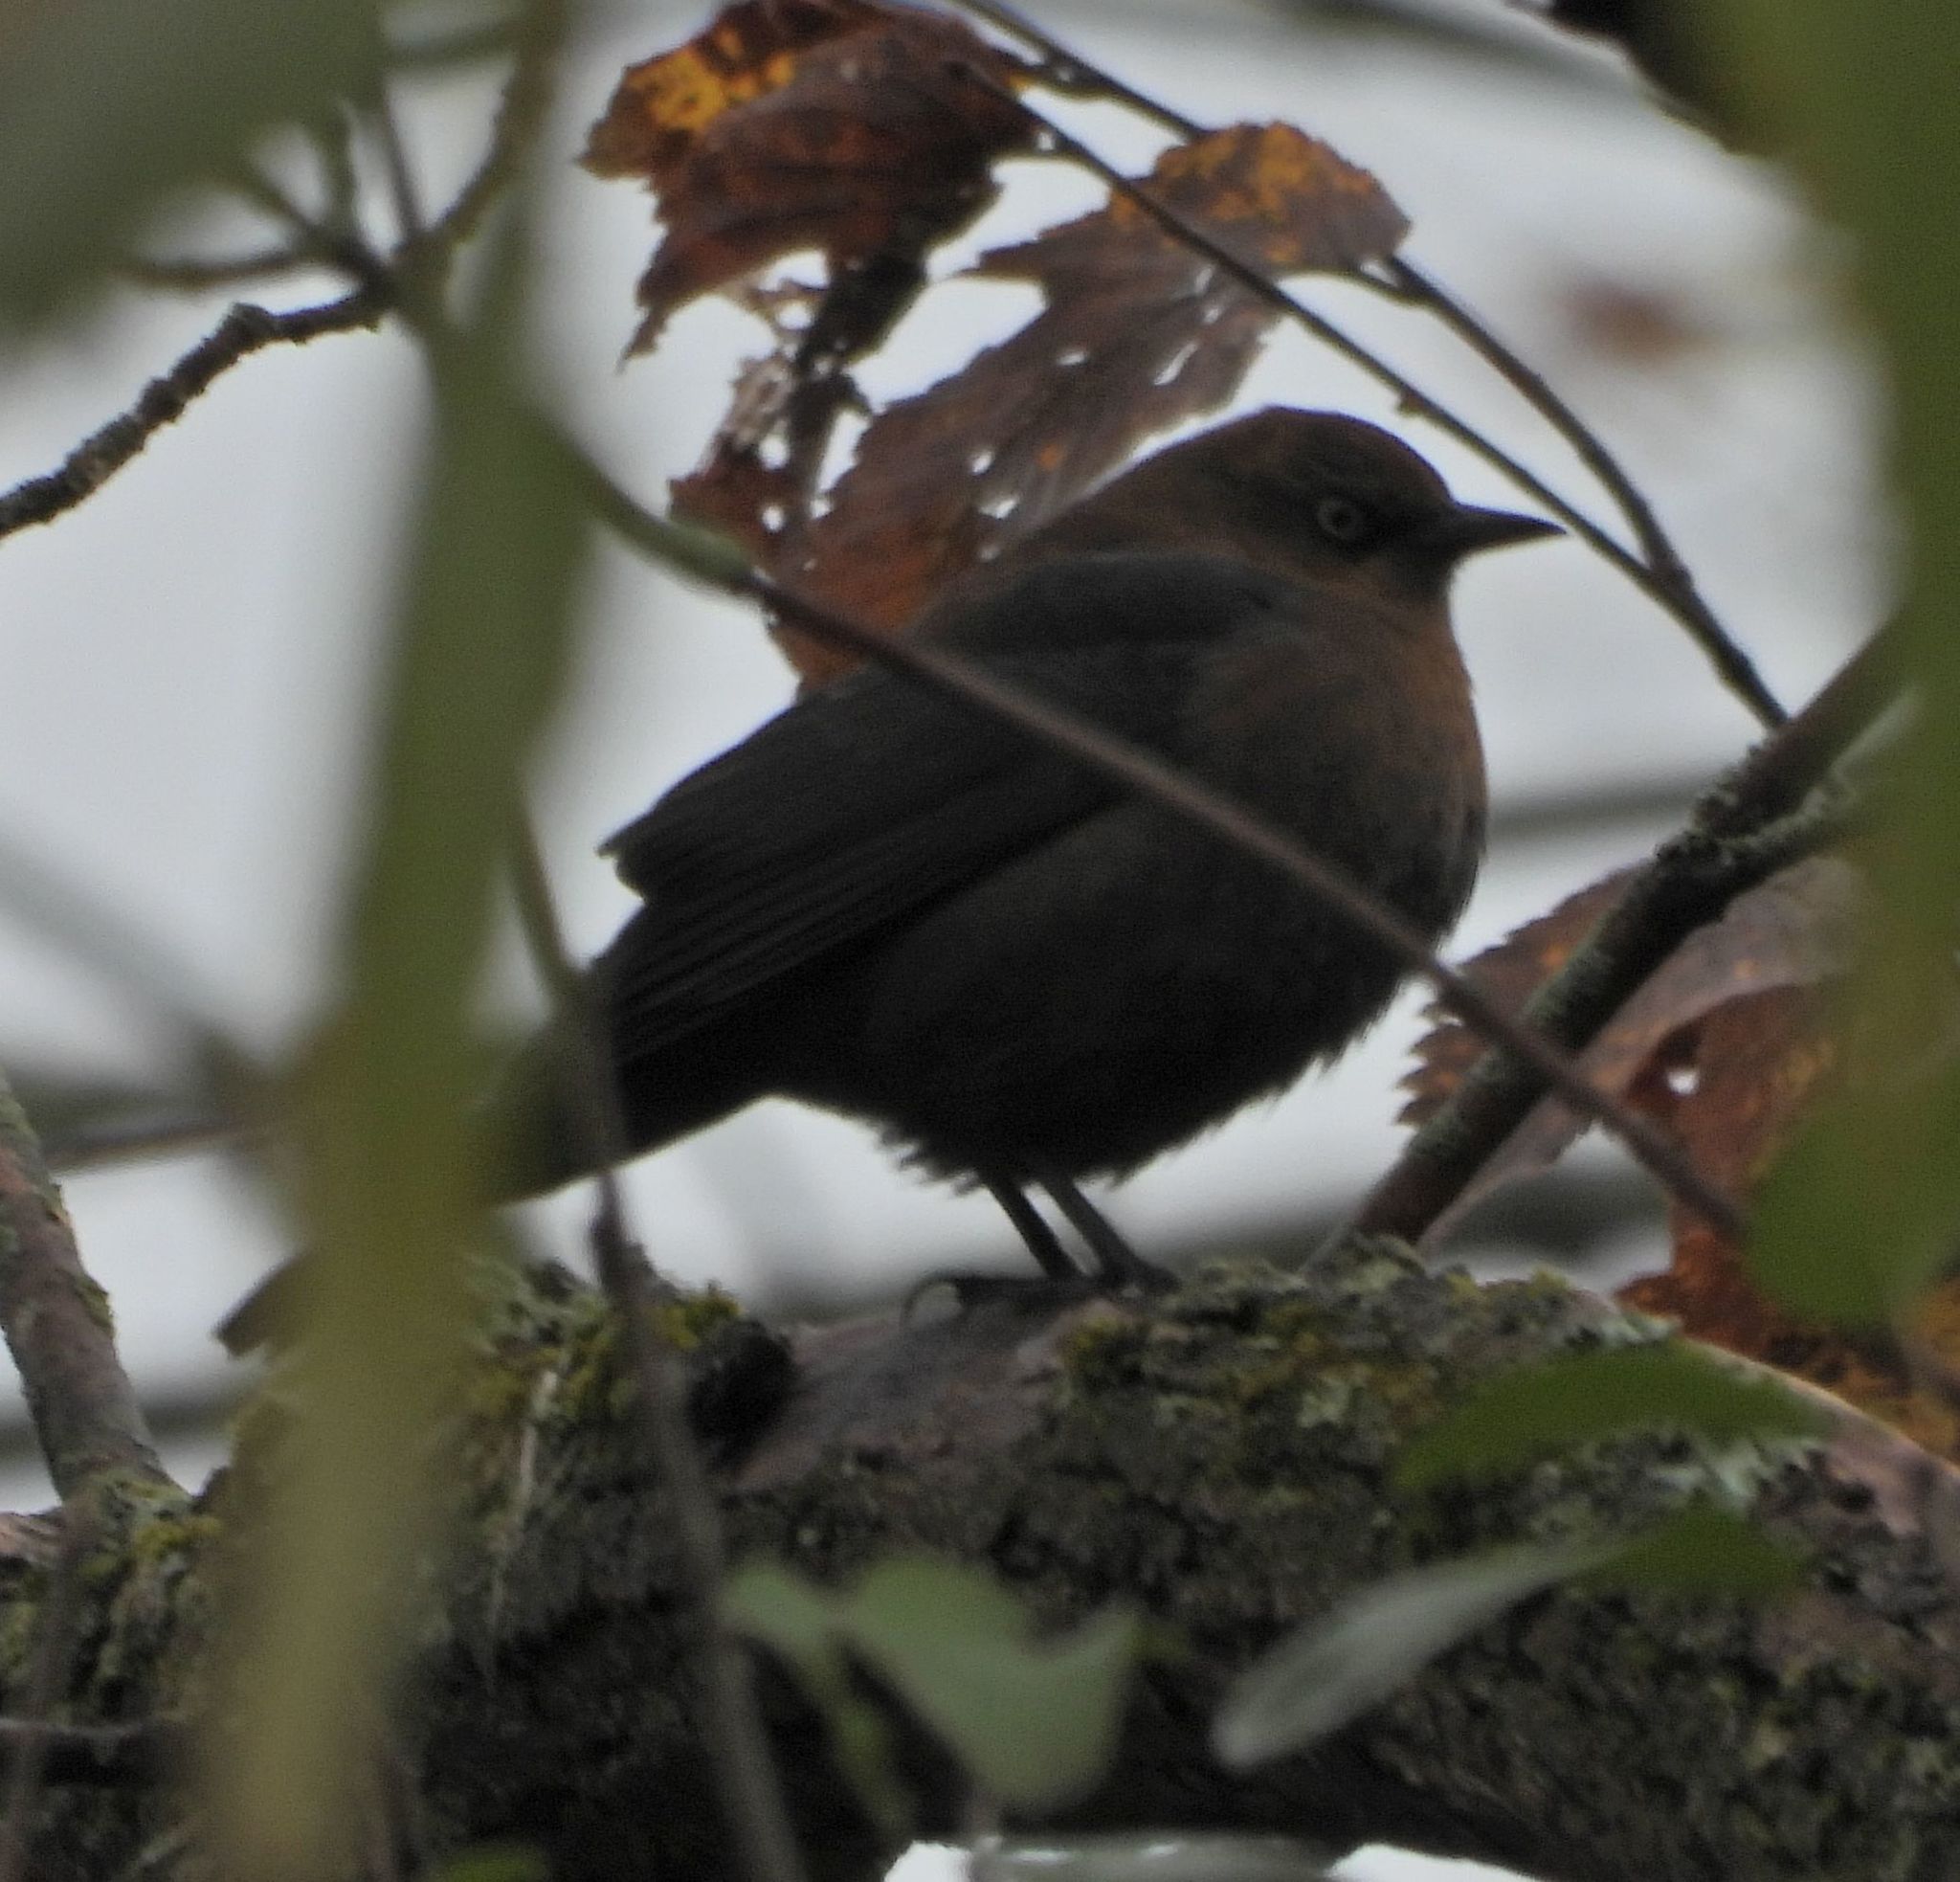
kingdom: Animalia
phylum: Chordata
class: Aves
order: Passeriformes
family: Icteridae
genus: Euphagus
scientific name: Euphagus carolinus
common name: Rusty blackbird
